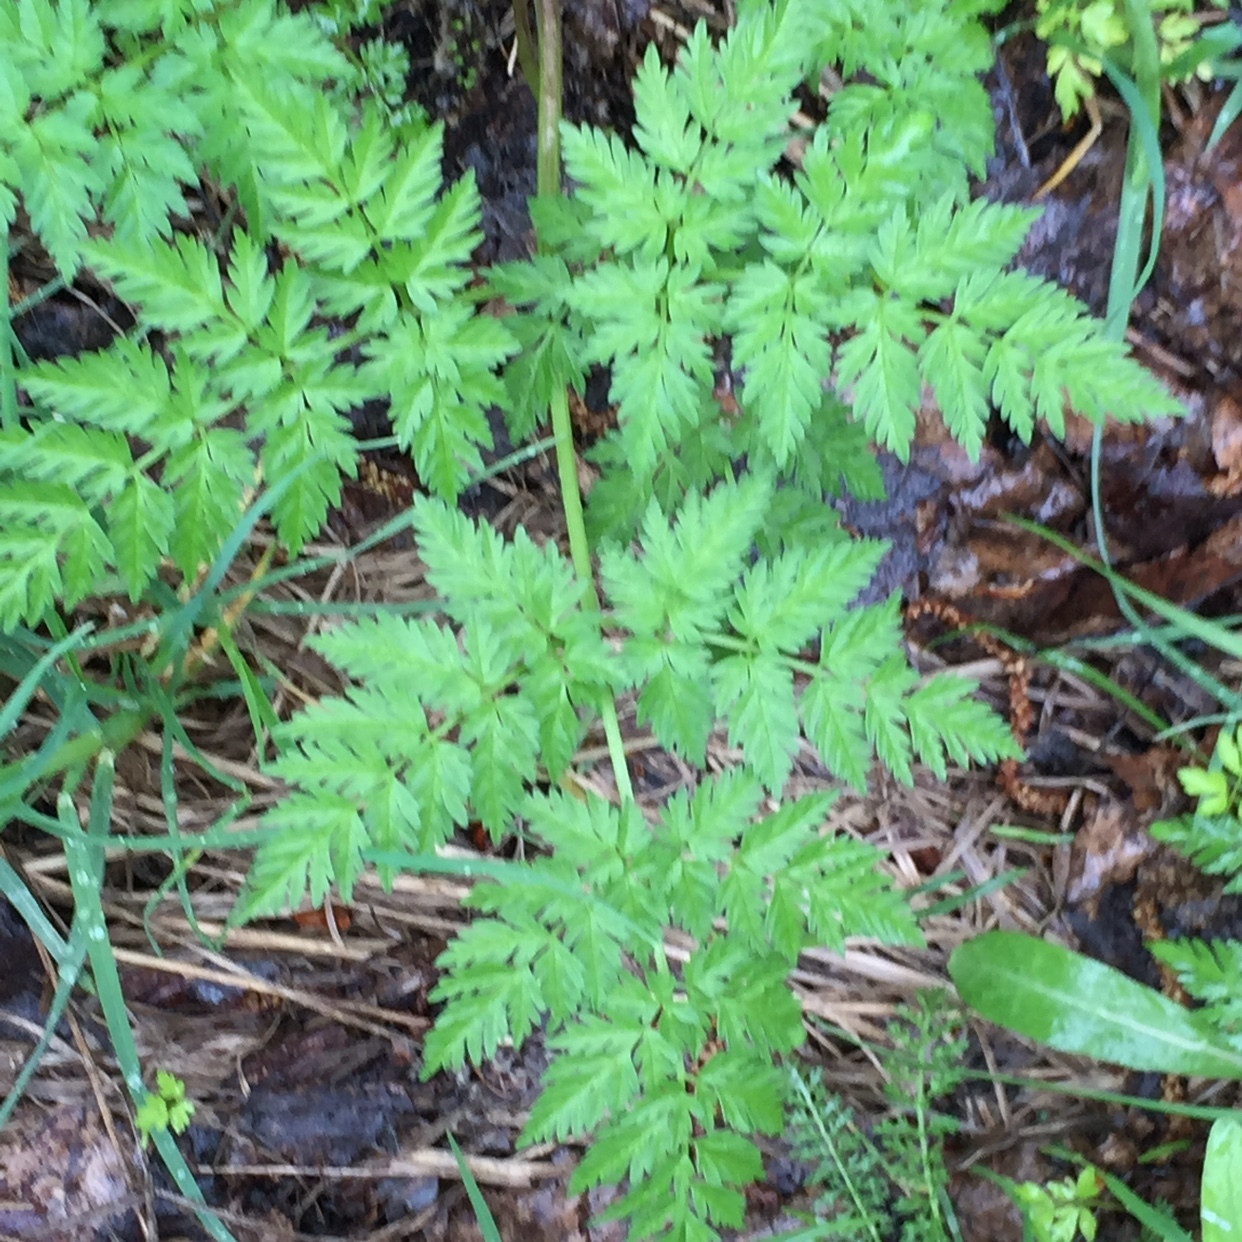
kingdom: Plantae
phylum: Tracheophyta
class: Magnoliopsida
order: Apiales
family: Apiaceae
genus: Anthriscus
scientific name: Anthriscus sylvestris
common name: Cow parsley
